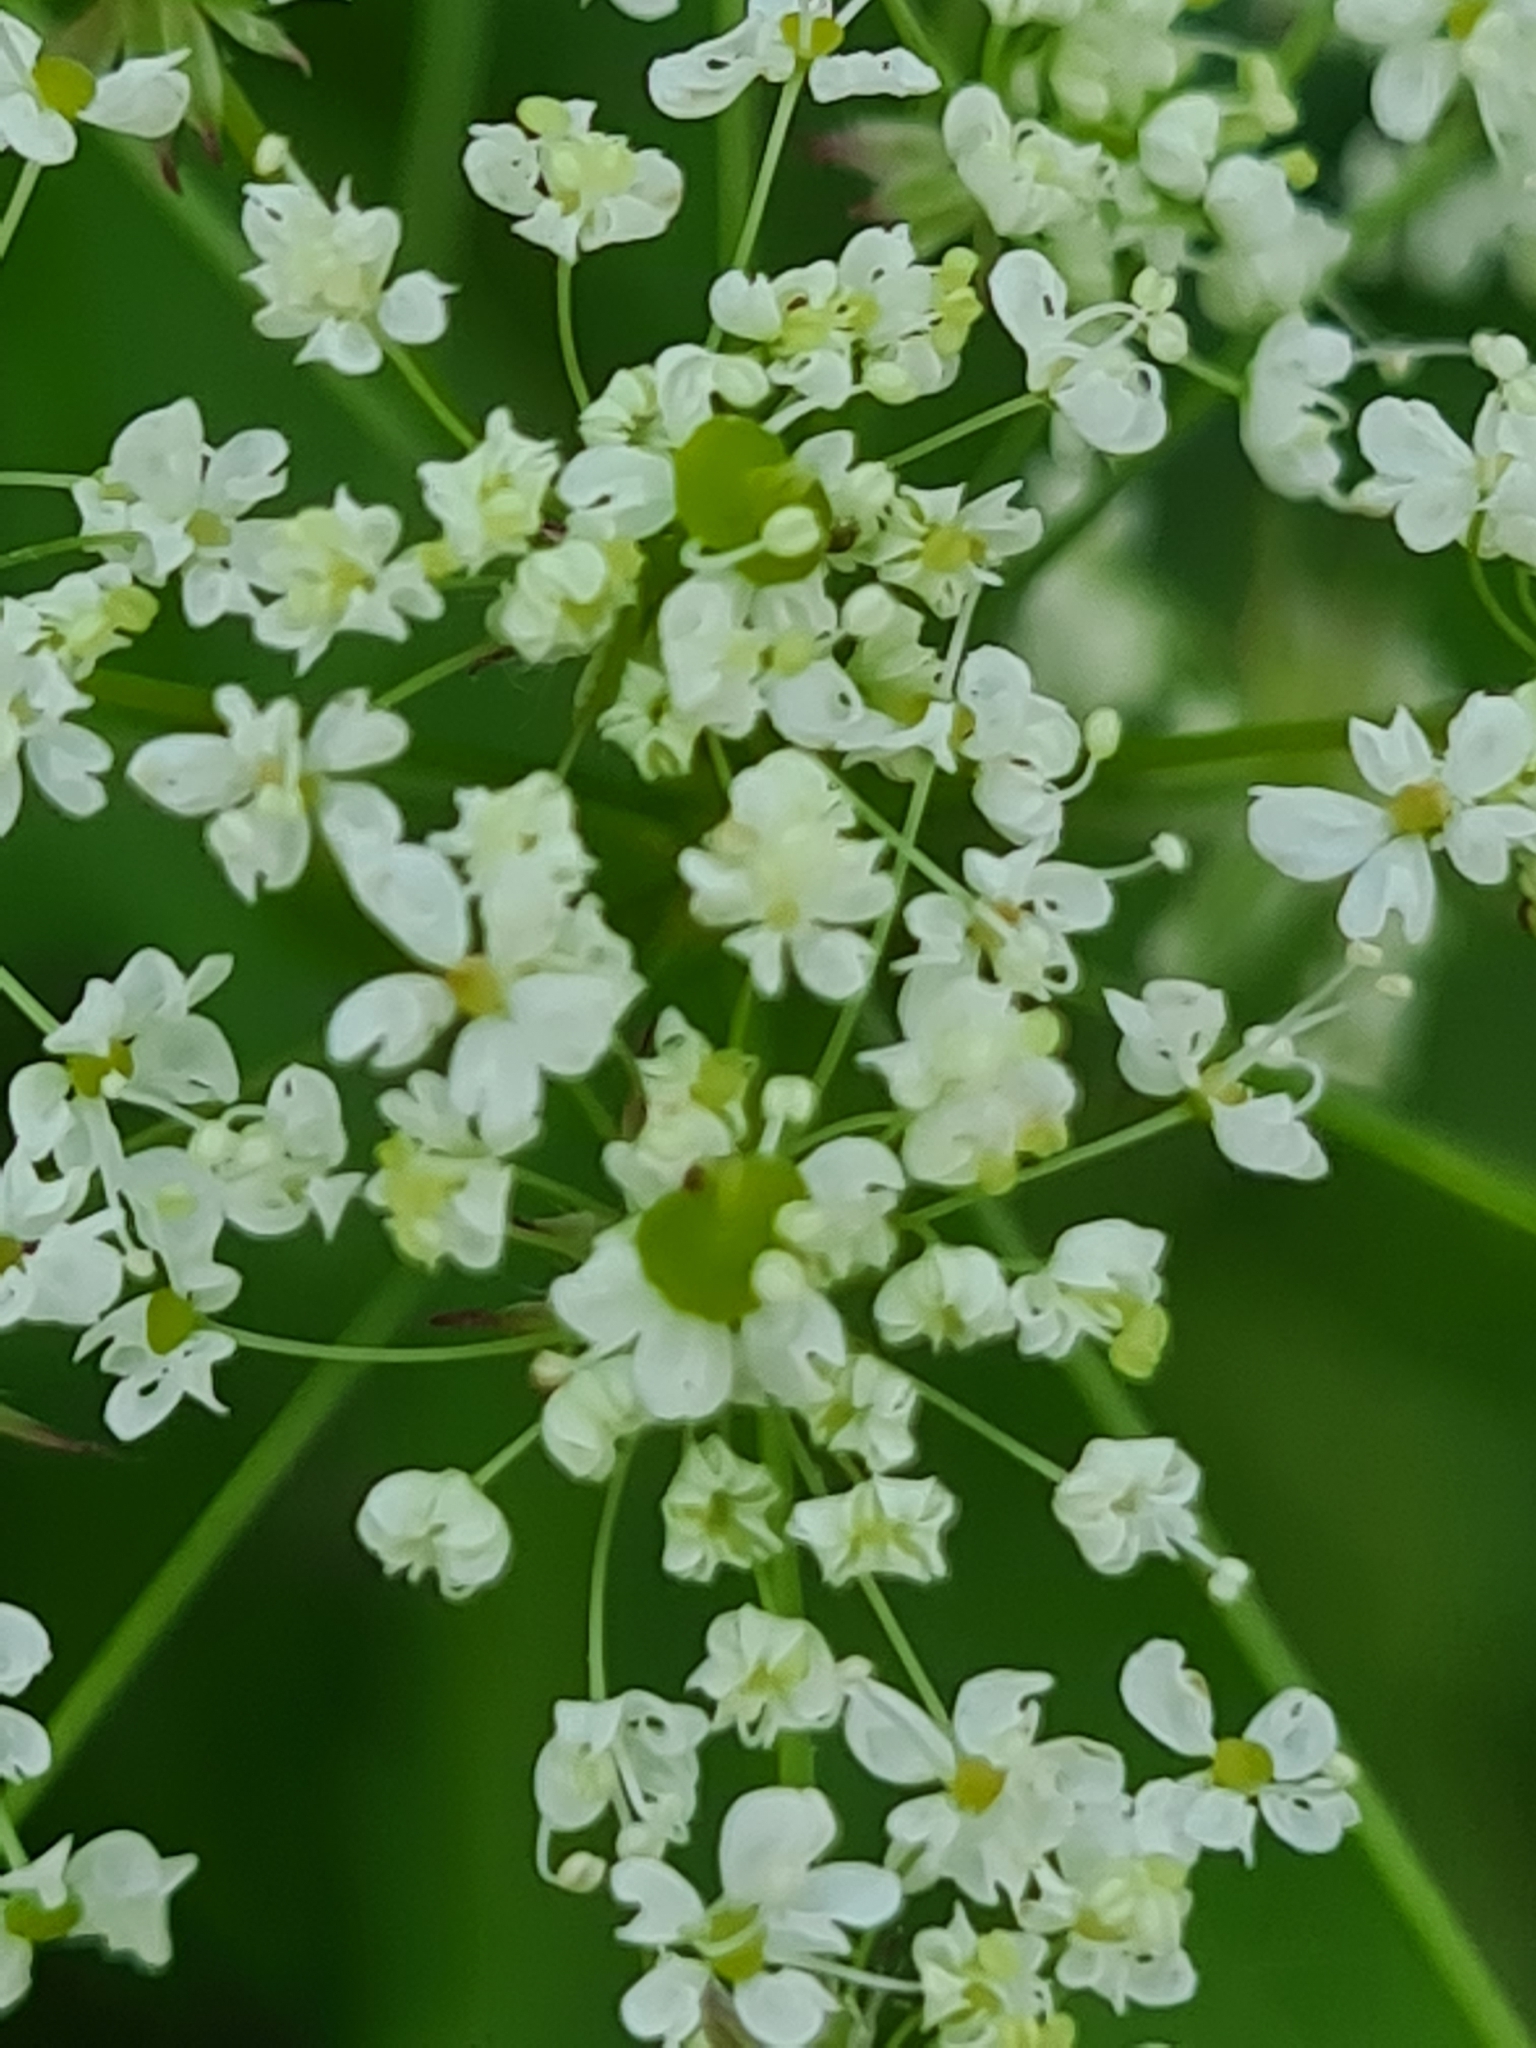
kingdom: Plantae
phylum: Tracheophyta
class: Magnoliopsida
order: Apiales
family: Apiaceae
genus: Chaerophyllum
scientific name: Chaerophyllum aromaticum
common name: Broadleaf chervil
